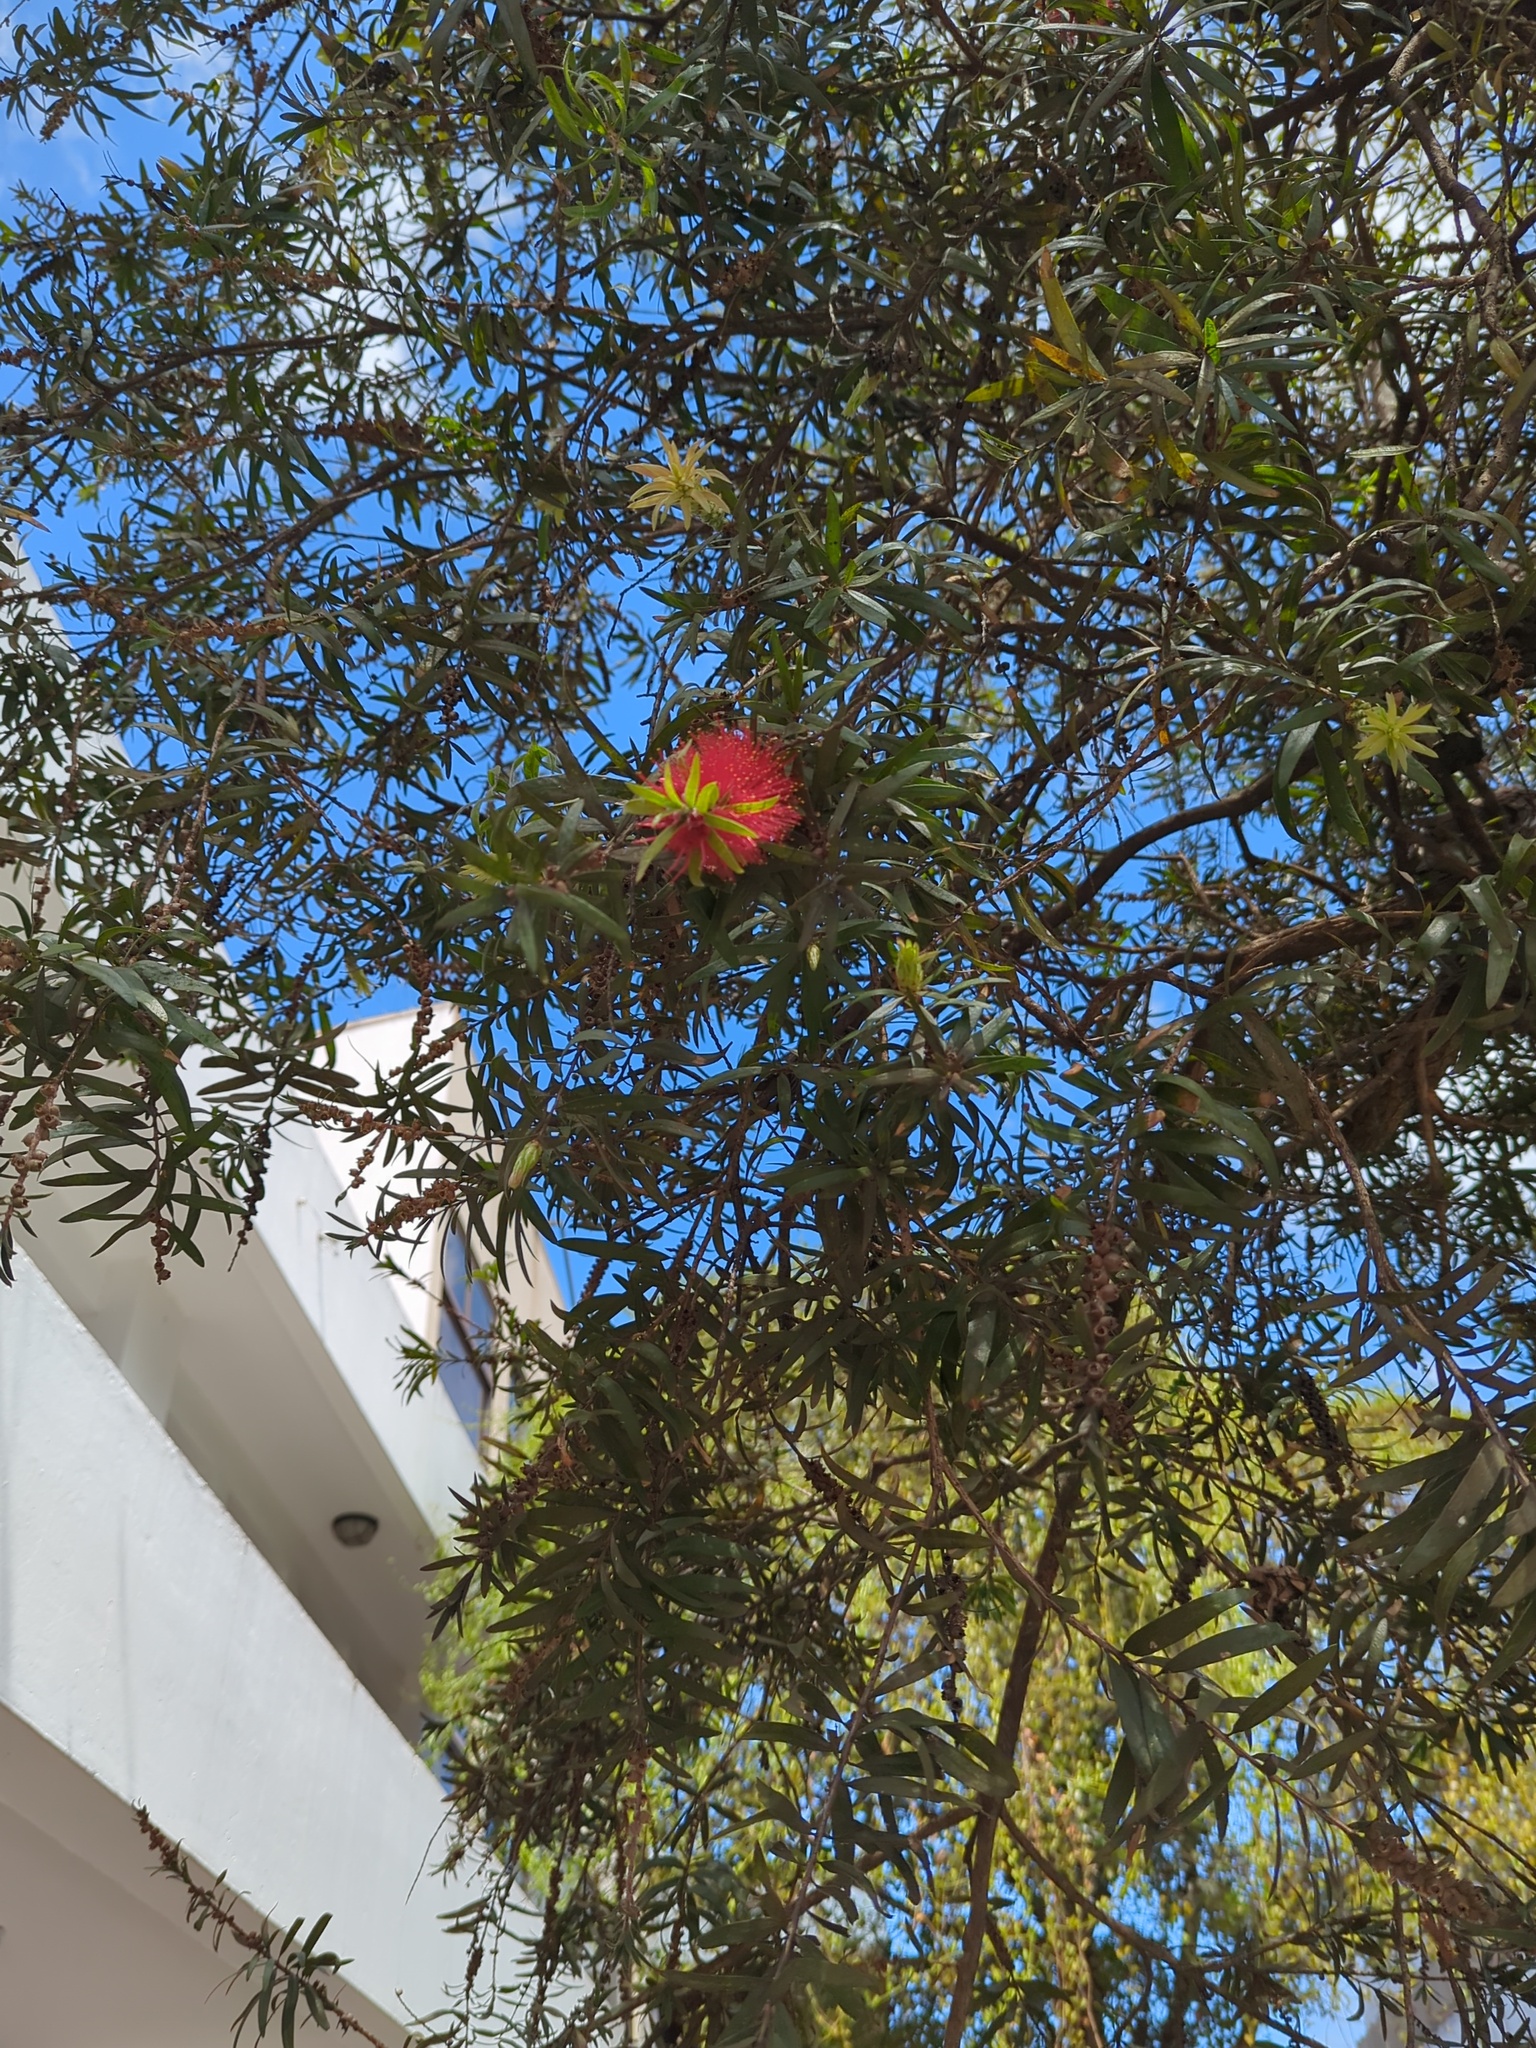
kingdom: Plantae
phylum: Tracheophyta
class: Magnoliopsida
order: Myrtales
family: Myrtaceae
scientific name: Myrtaceae
